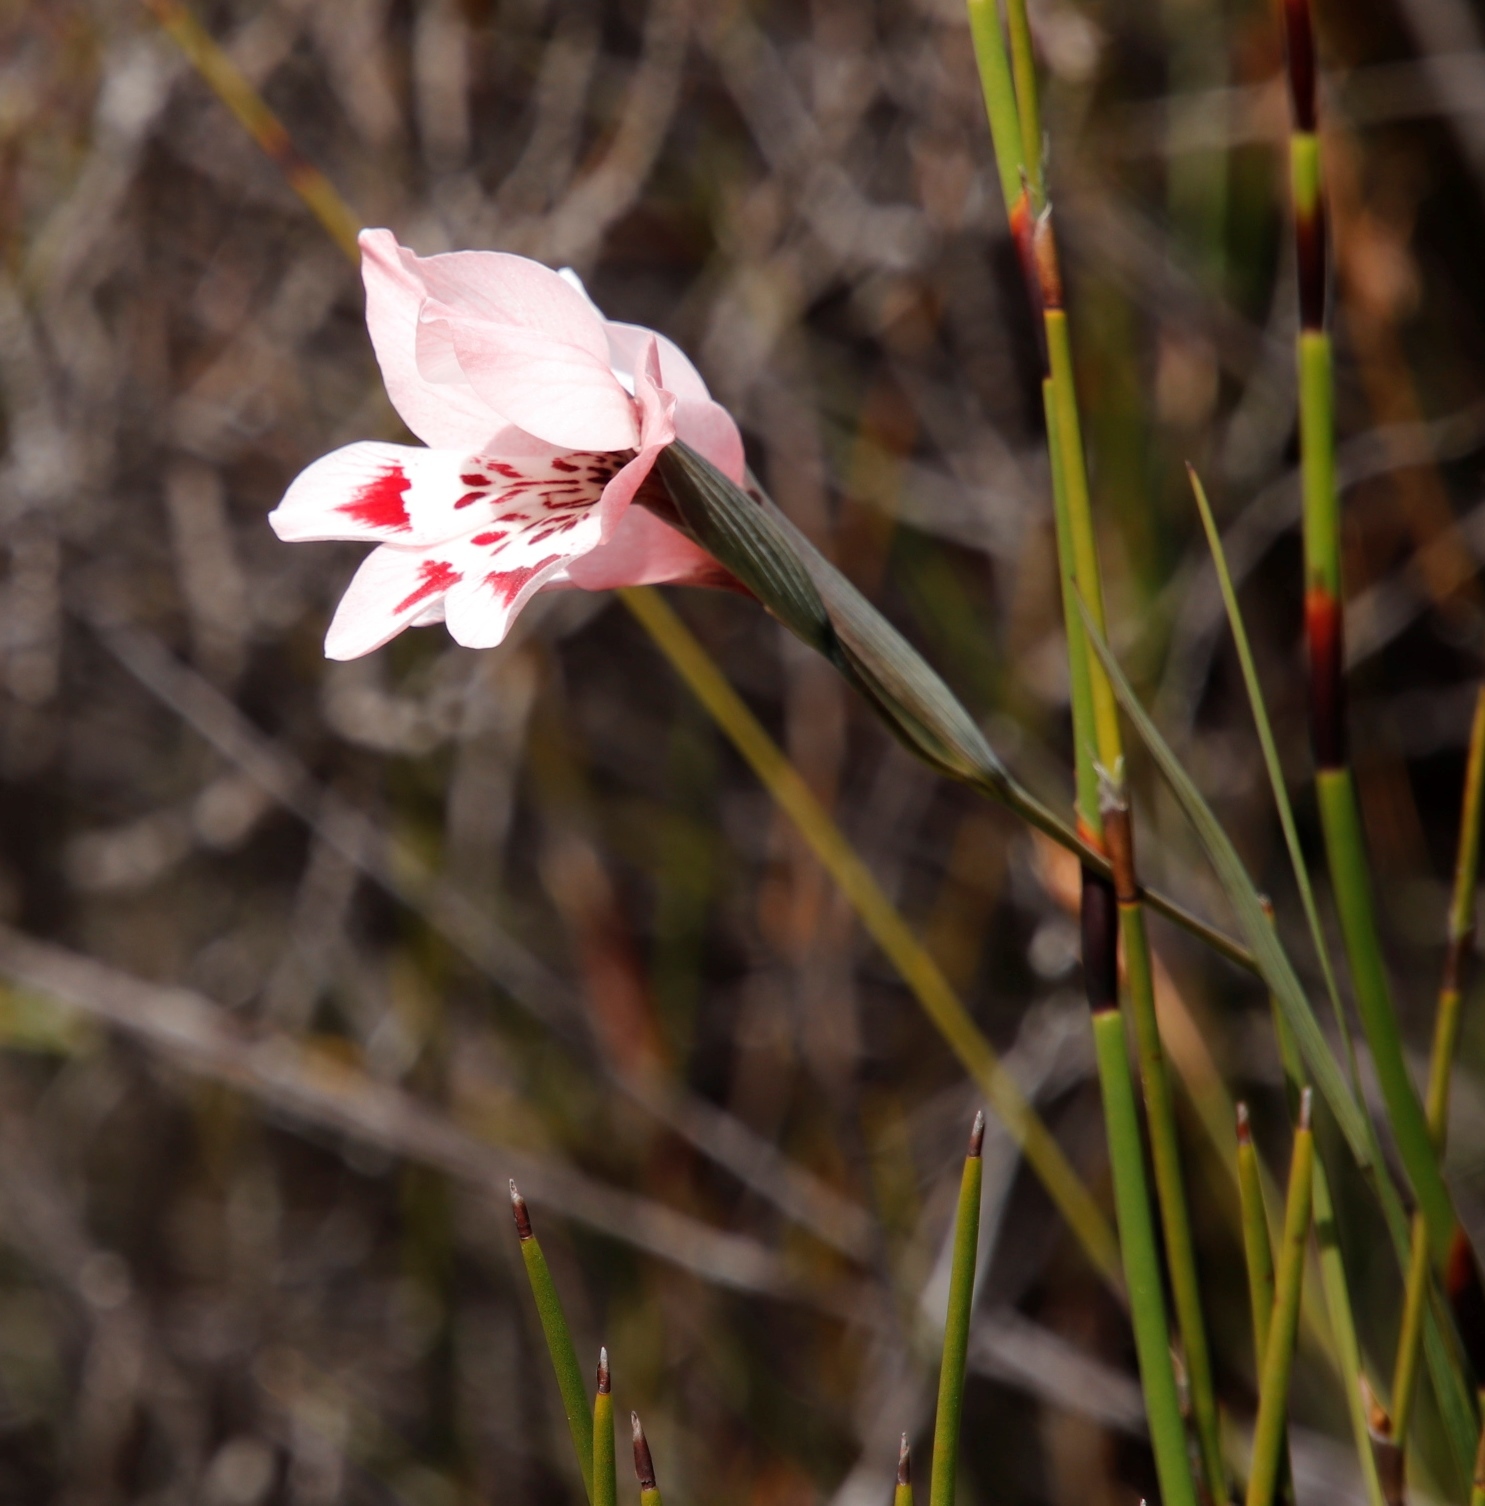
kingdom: Plantae
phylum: Tracheophyta
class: Liliopsida
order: Asparagales
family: Iridaceae
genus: Gladiolus
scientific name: Gladiolus debilis
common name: Painted-lady
